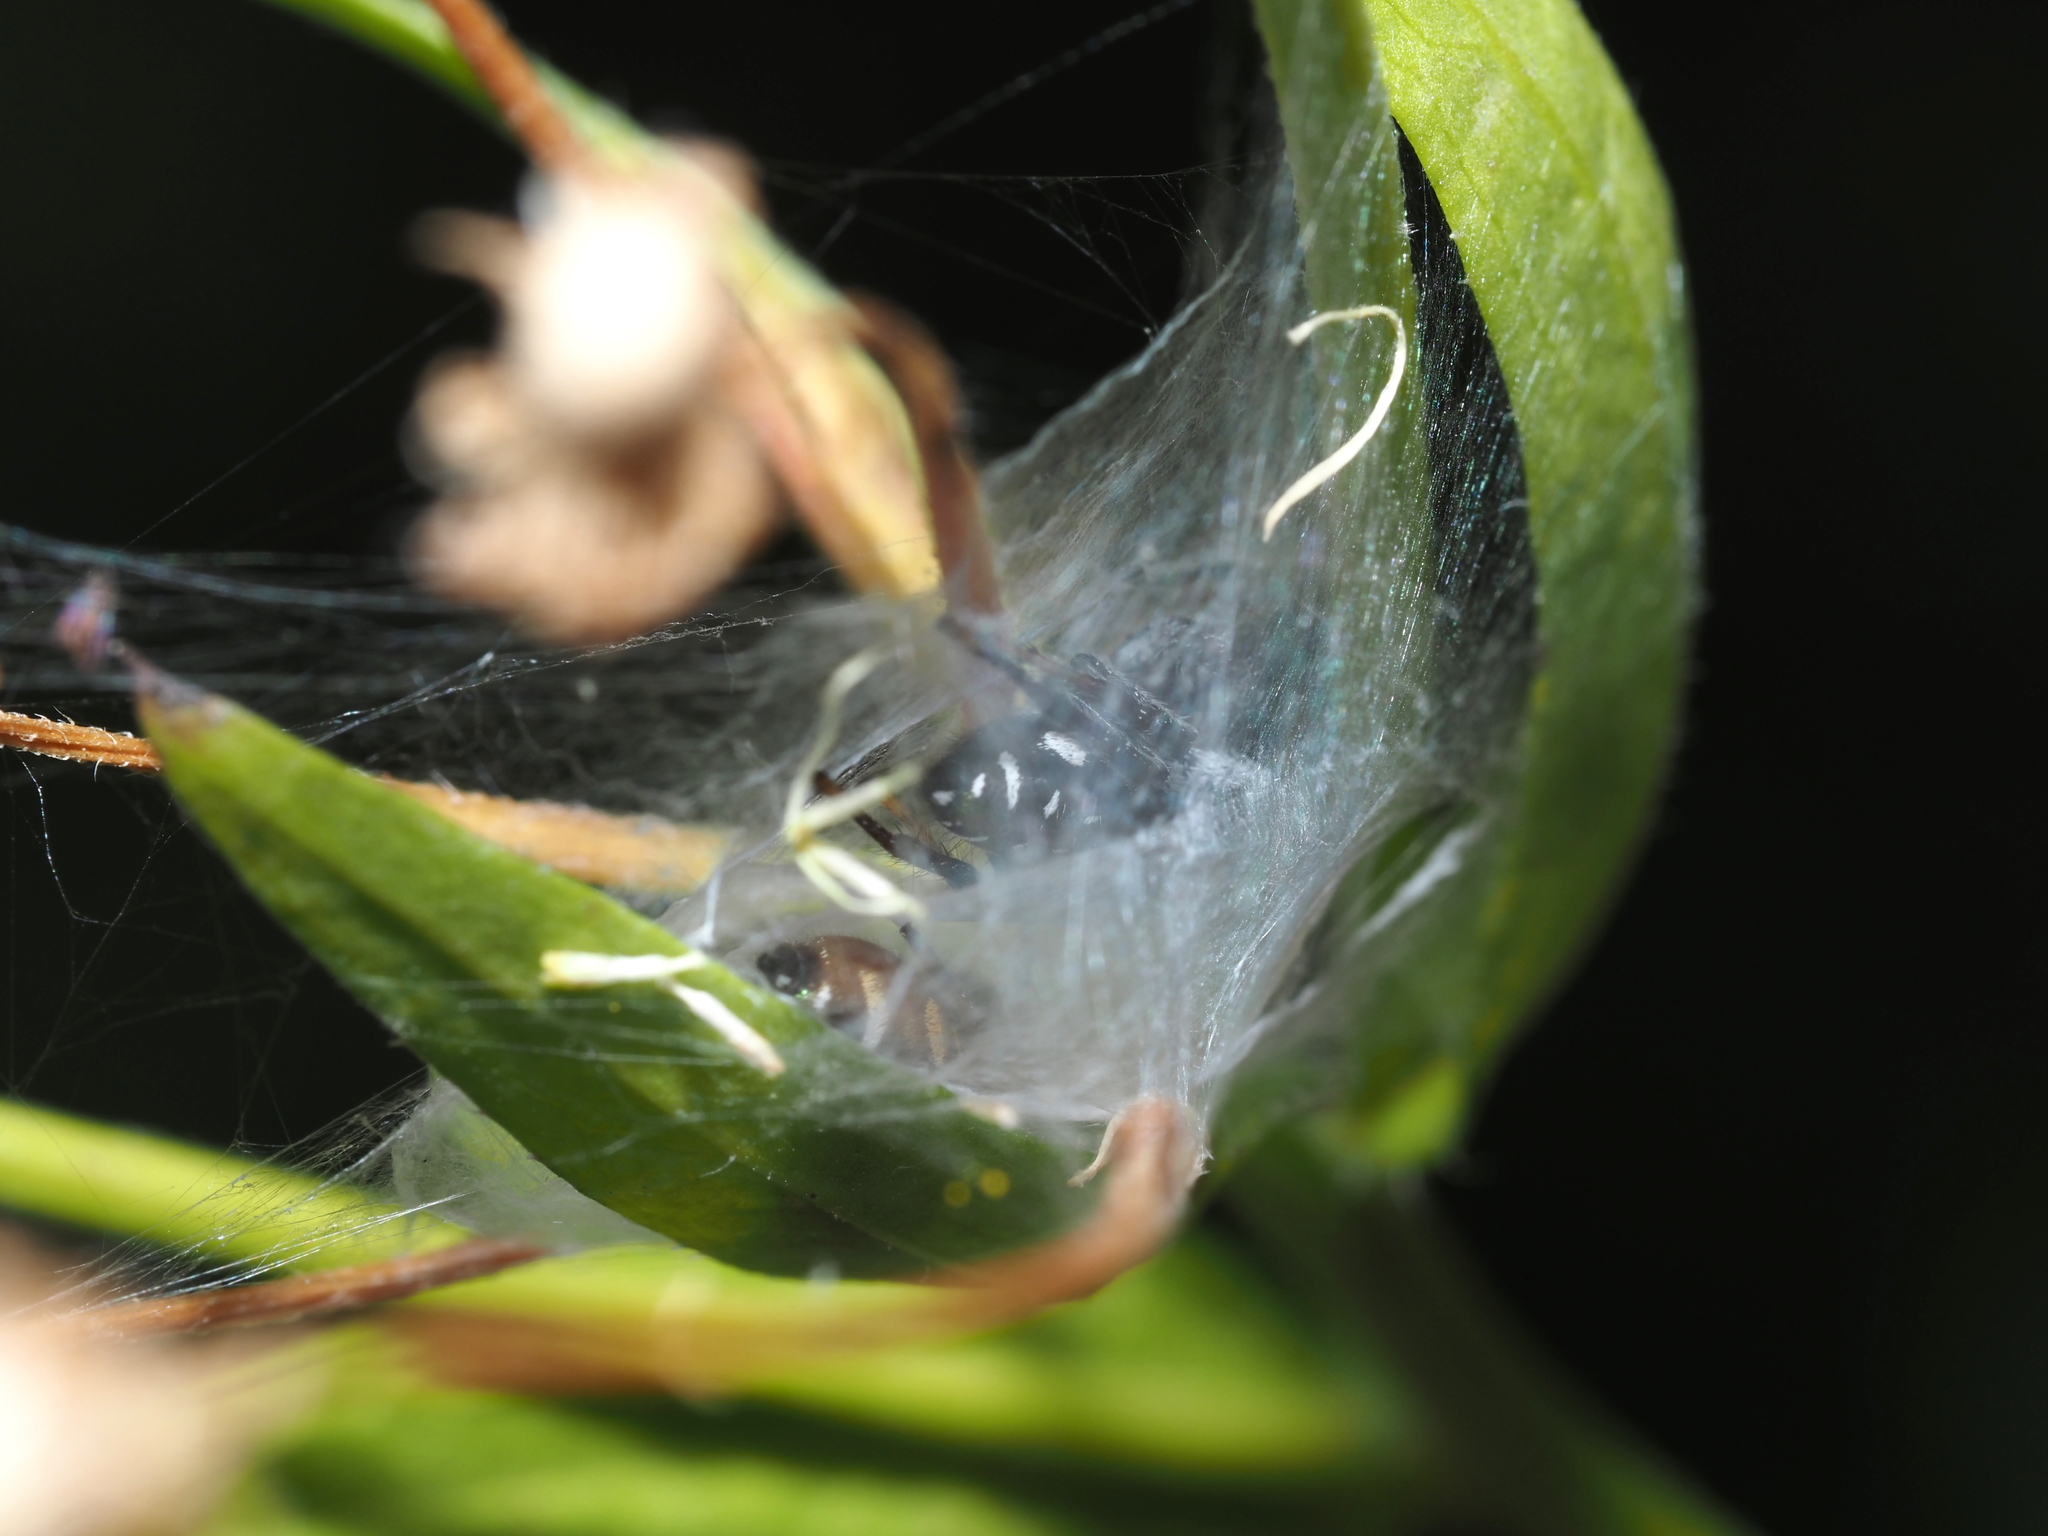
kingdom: Animalia
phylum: Arthropoda
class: Arachnida
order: Araneae
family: Salticidae
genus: Paraphidippus
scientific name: Paraphidippus aurantius
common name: Jumping spiders
